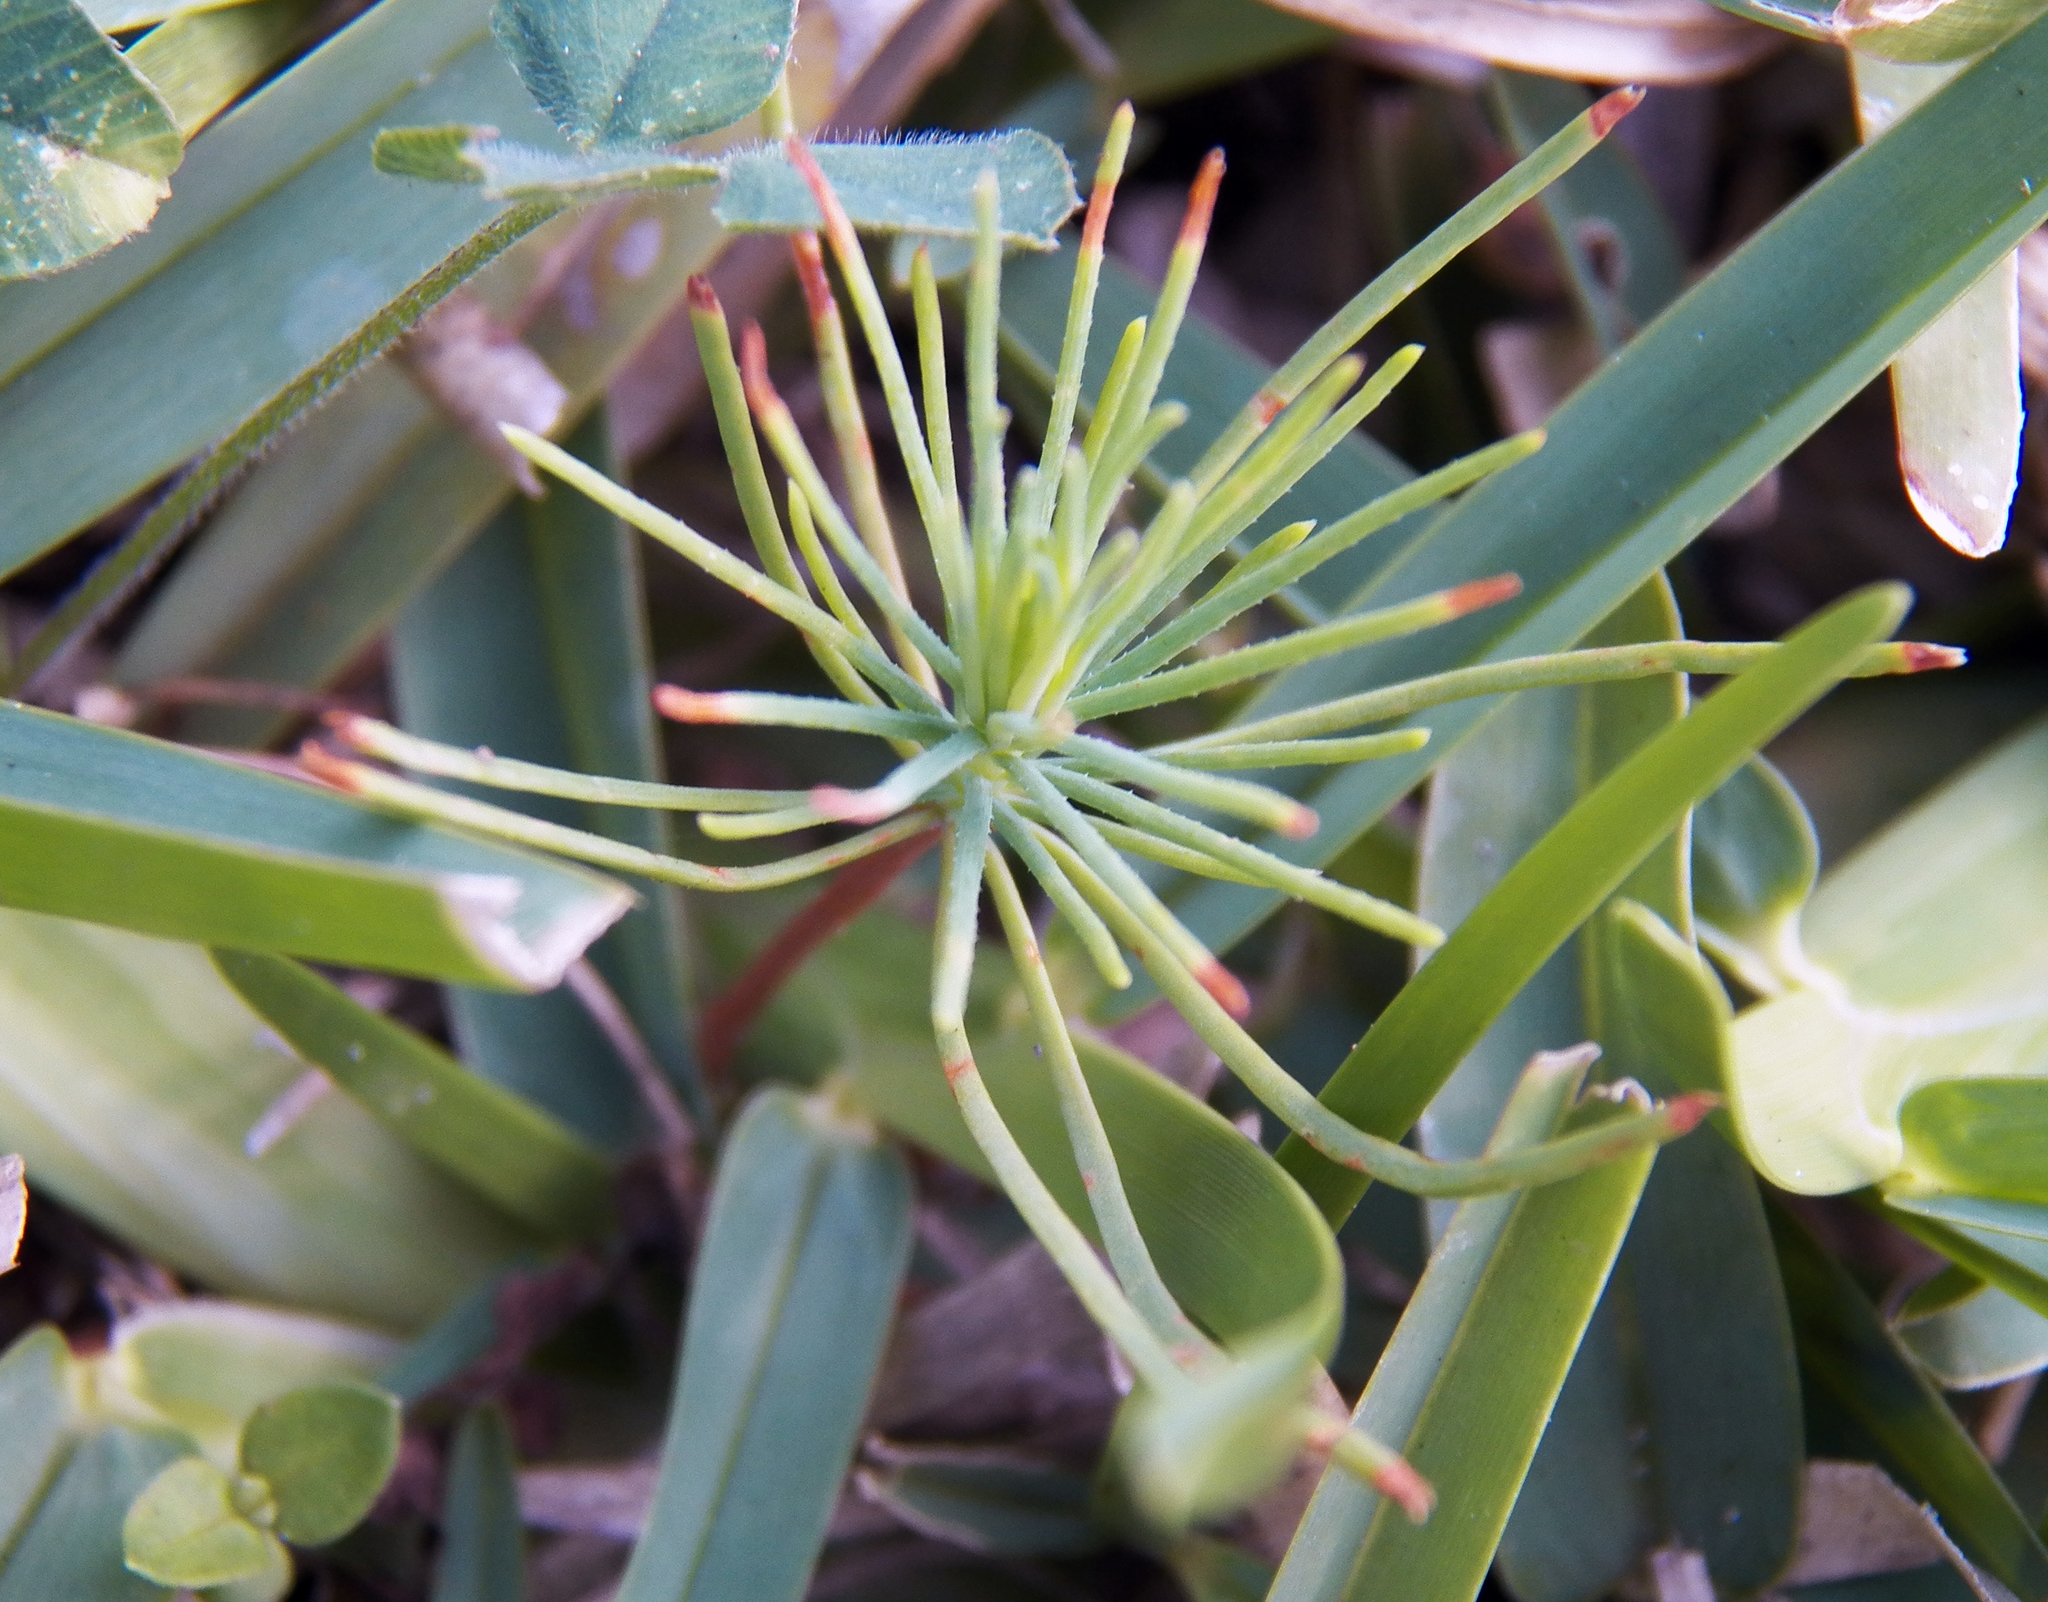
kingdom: Plantae
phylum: Tracheophyta
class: Pinopsida
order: Pinales
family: Pinaceae
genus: Pinus
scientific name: Pinus taeda
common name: Loblolly pine
